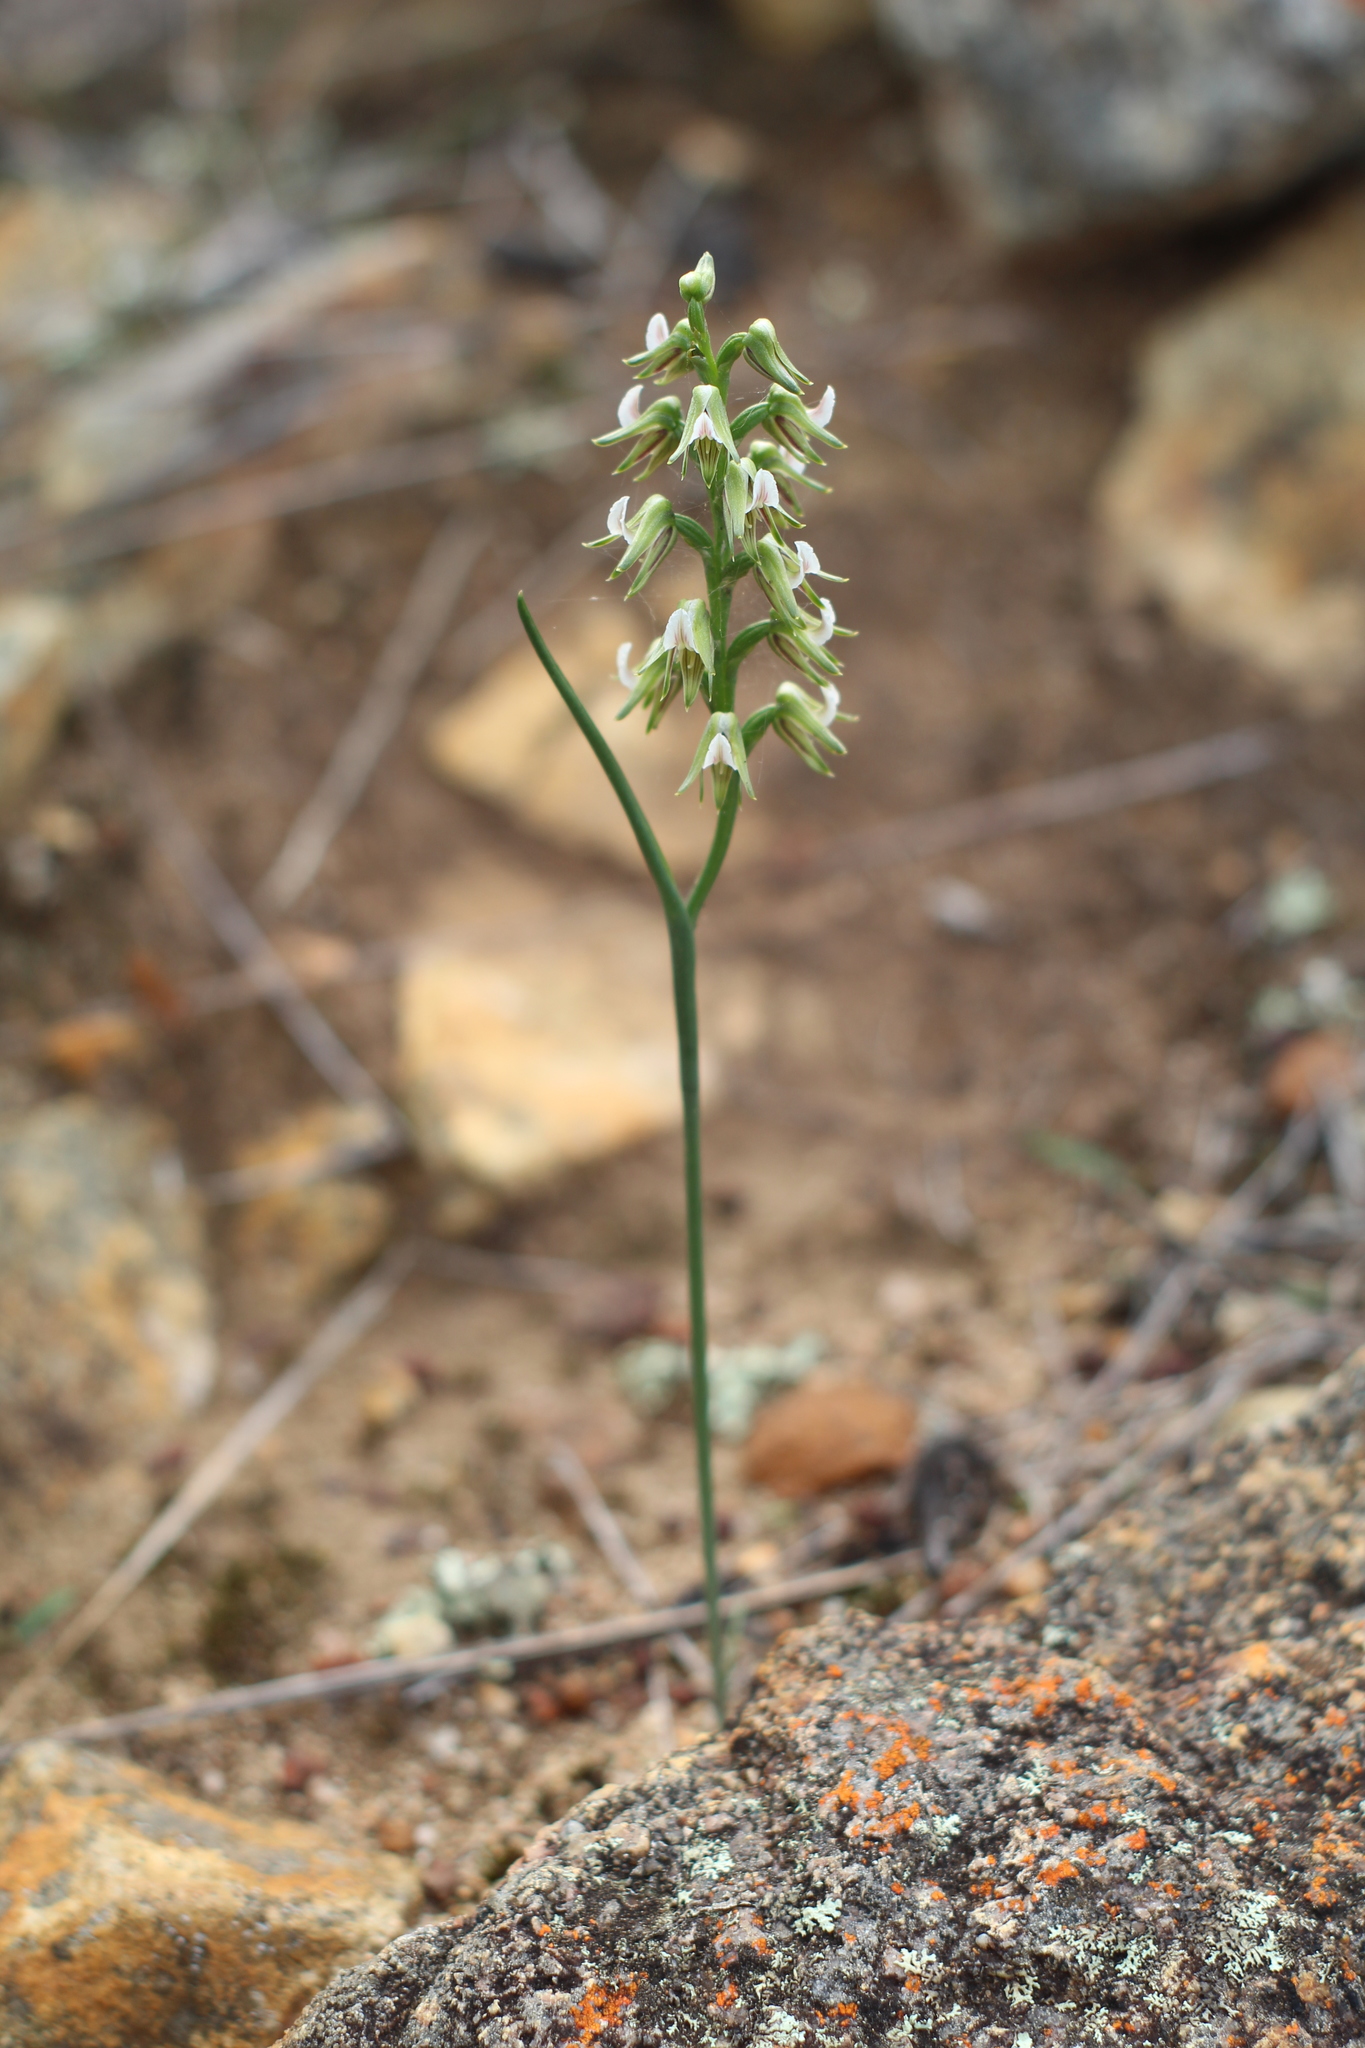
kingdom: Plantae
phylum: Tracheophyta
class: Liliopsida
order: Asparagales
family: Orchidaceae
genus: Prasophyllum
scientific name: Prasophyllum parvifolium
